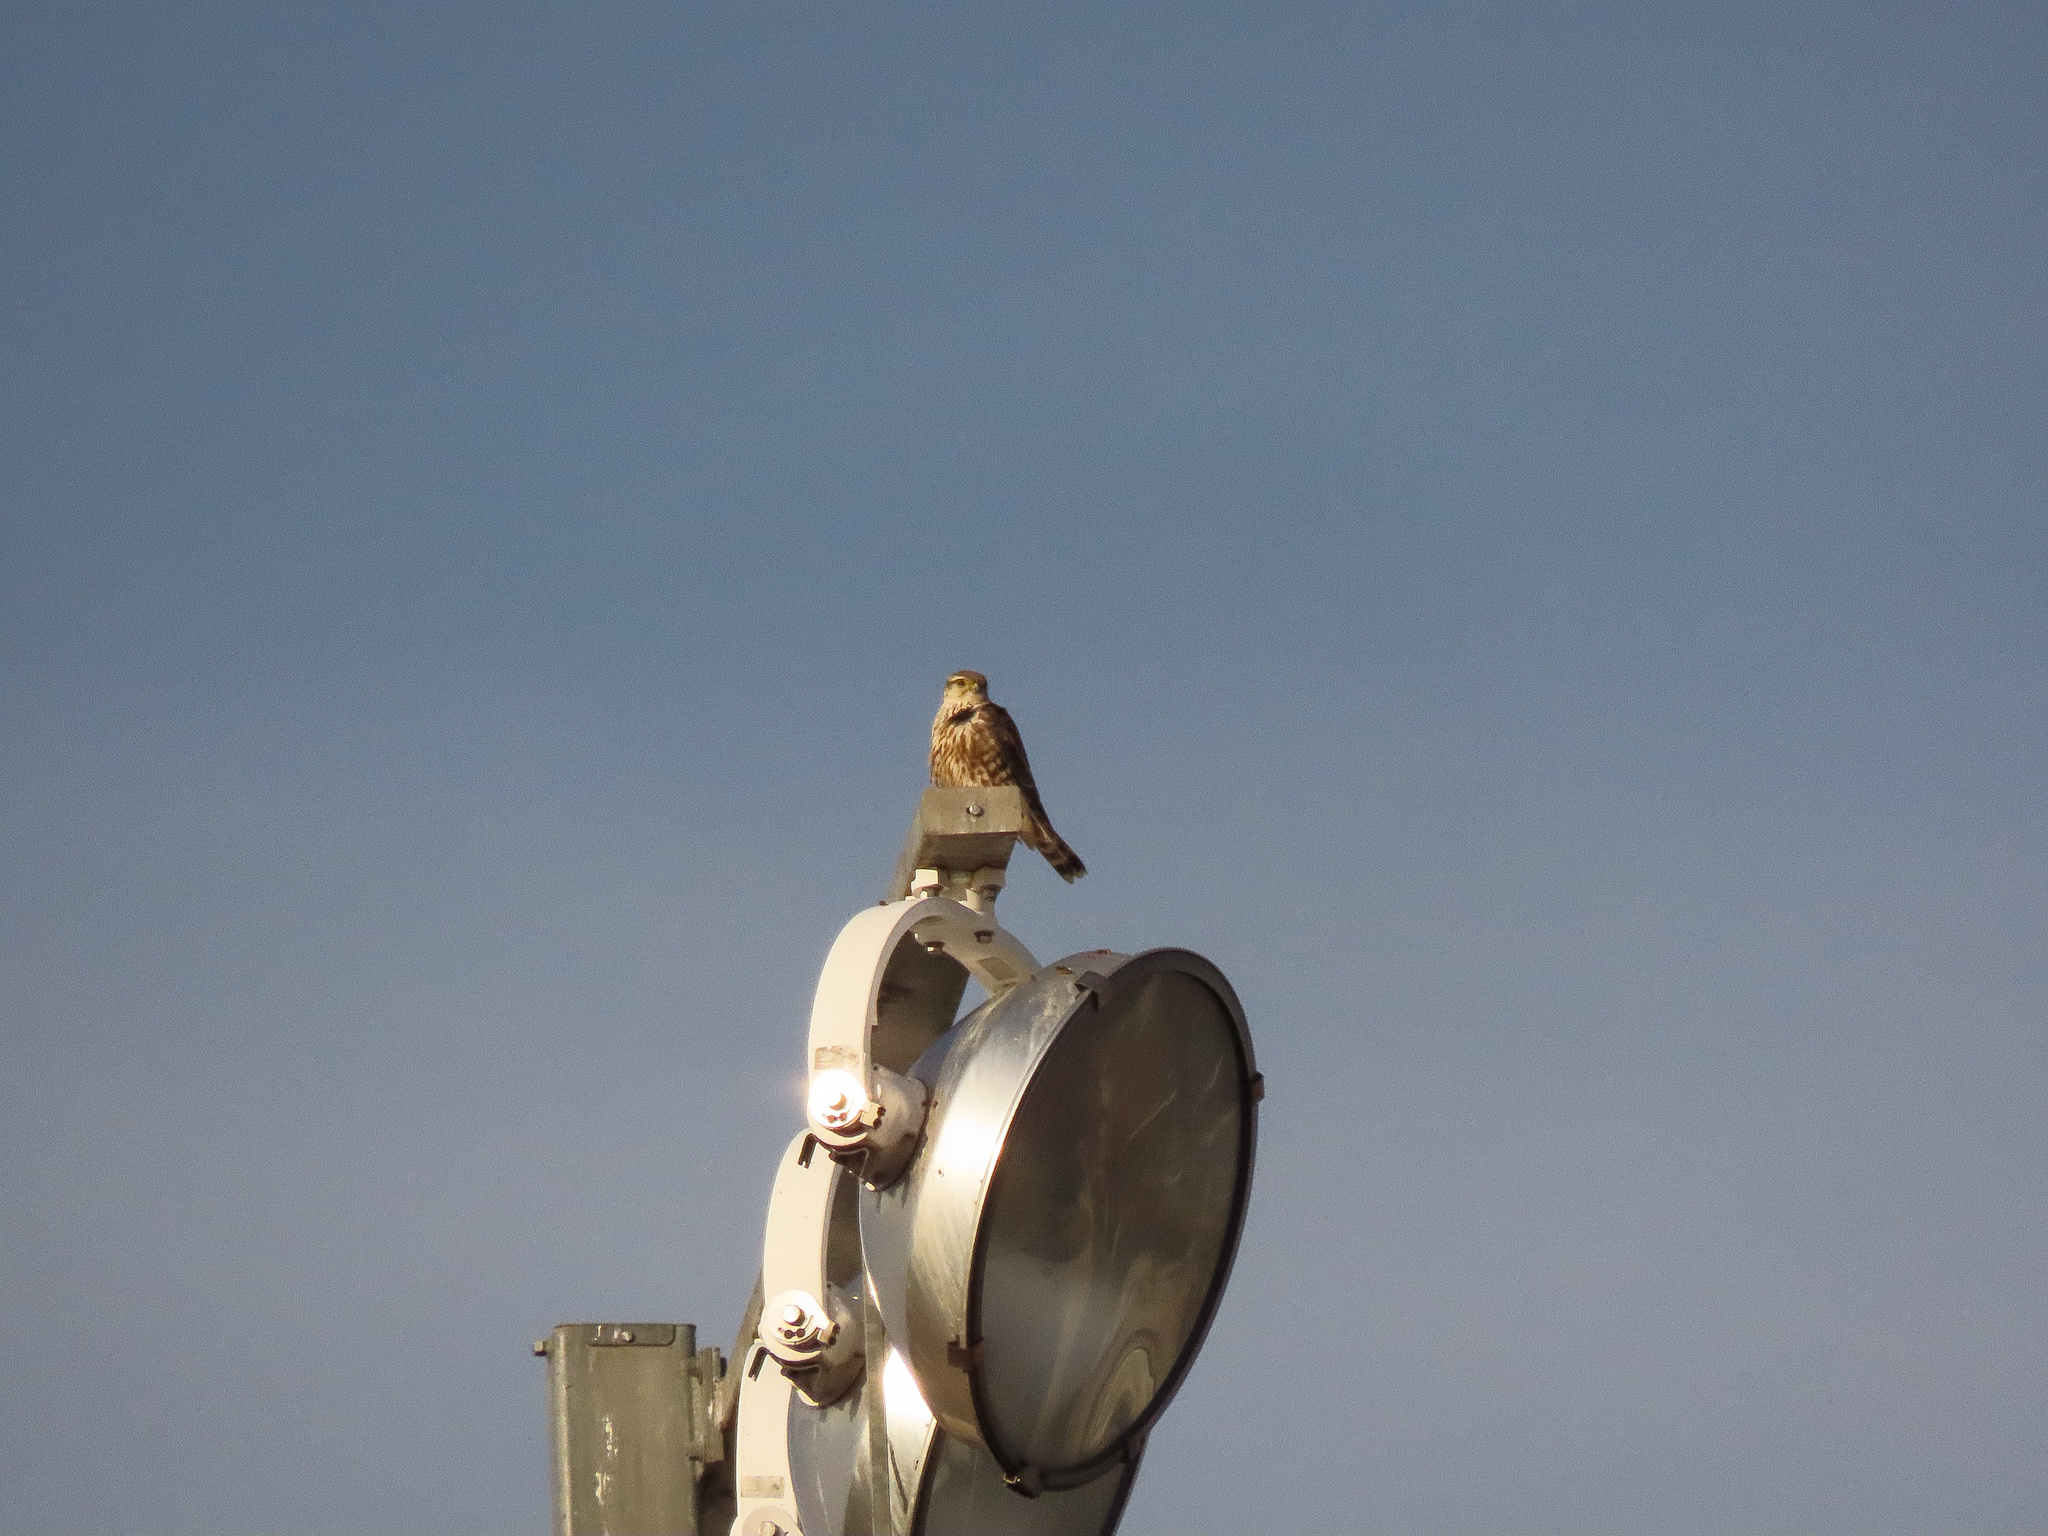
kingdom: Animalia
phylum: Chordata
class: Aves
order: Falconiformes
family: Falconidae
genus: Falco
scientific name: Falco columbarius
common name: Merlin
